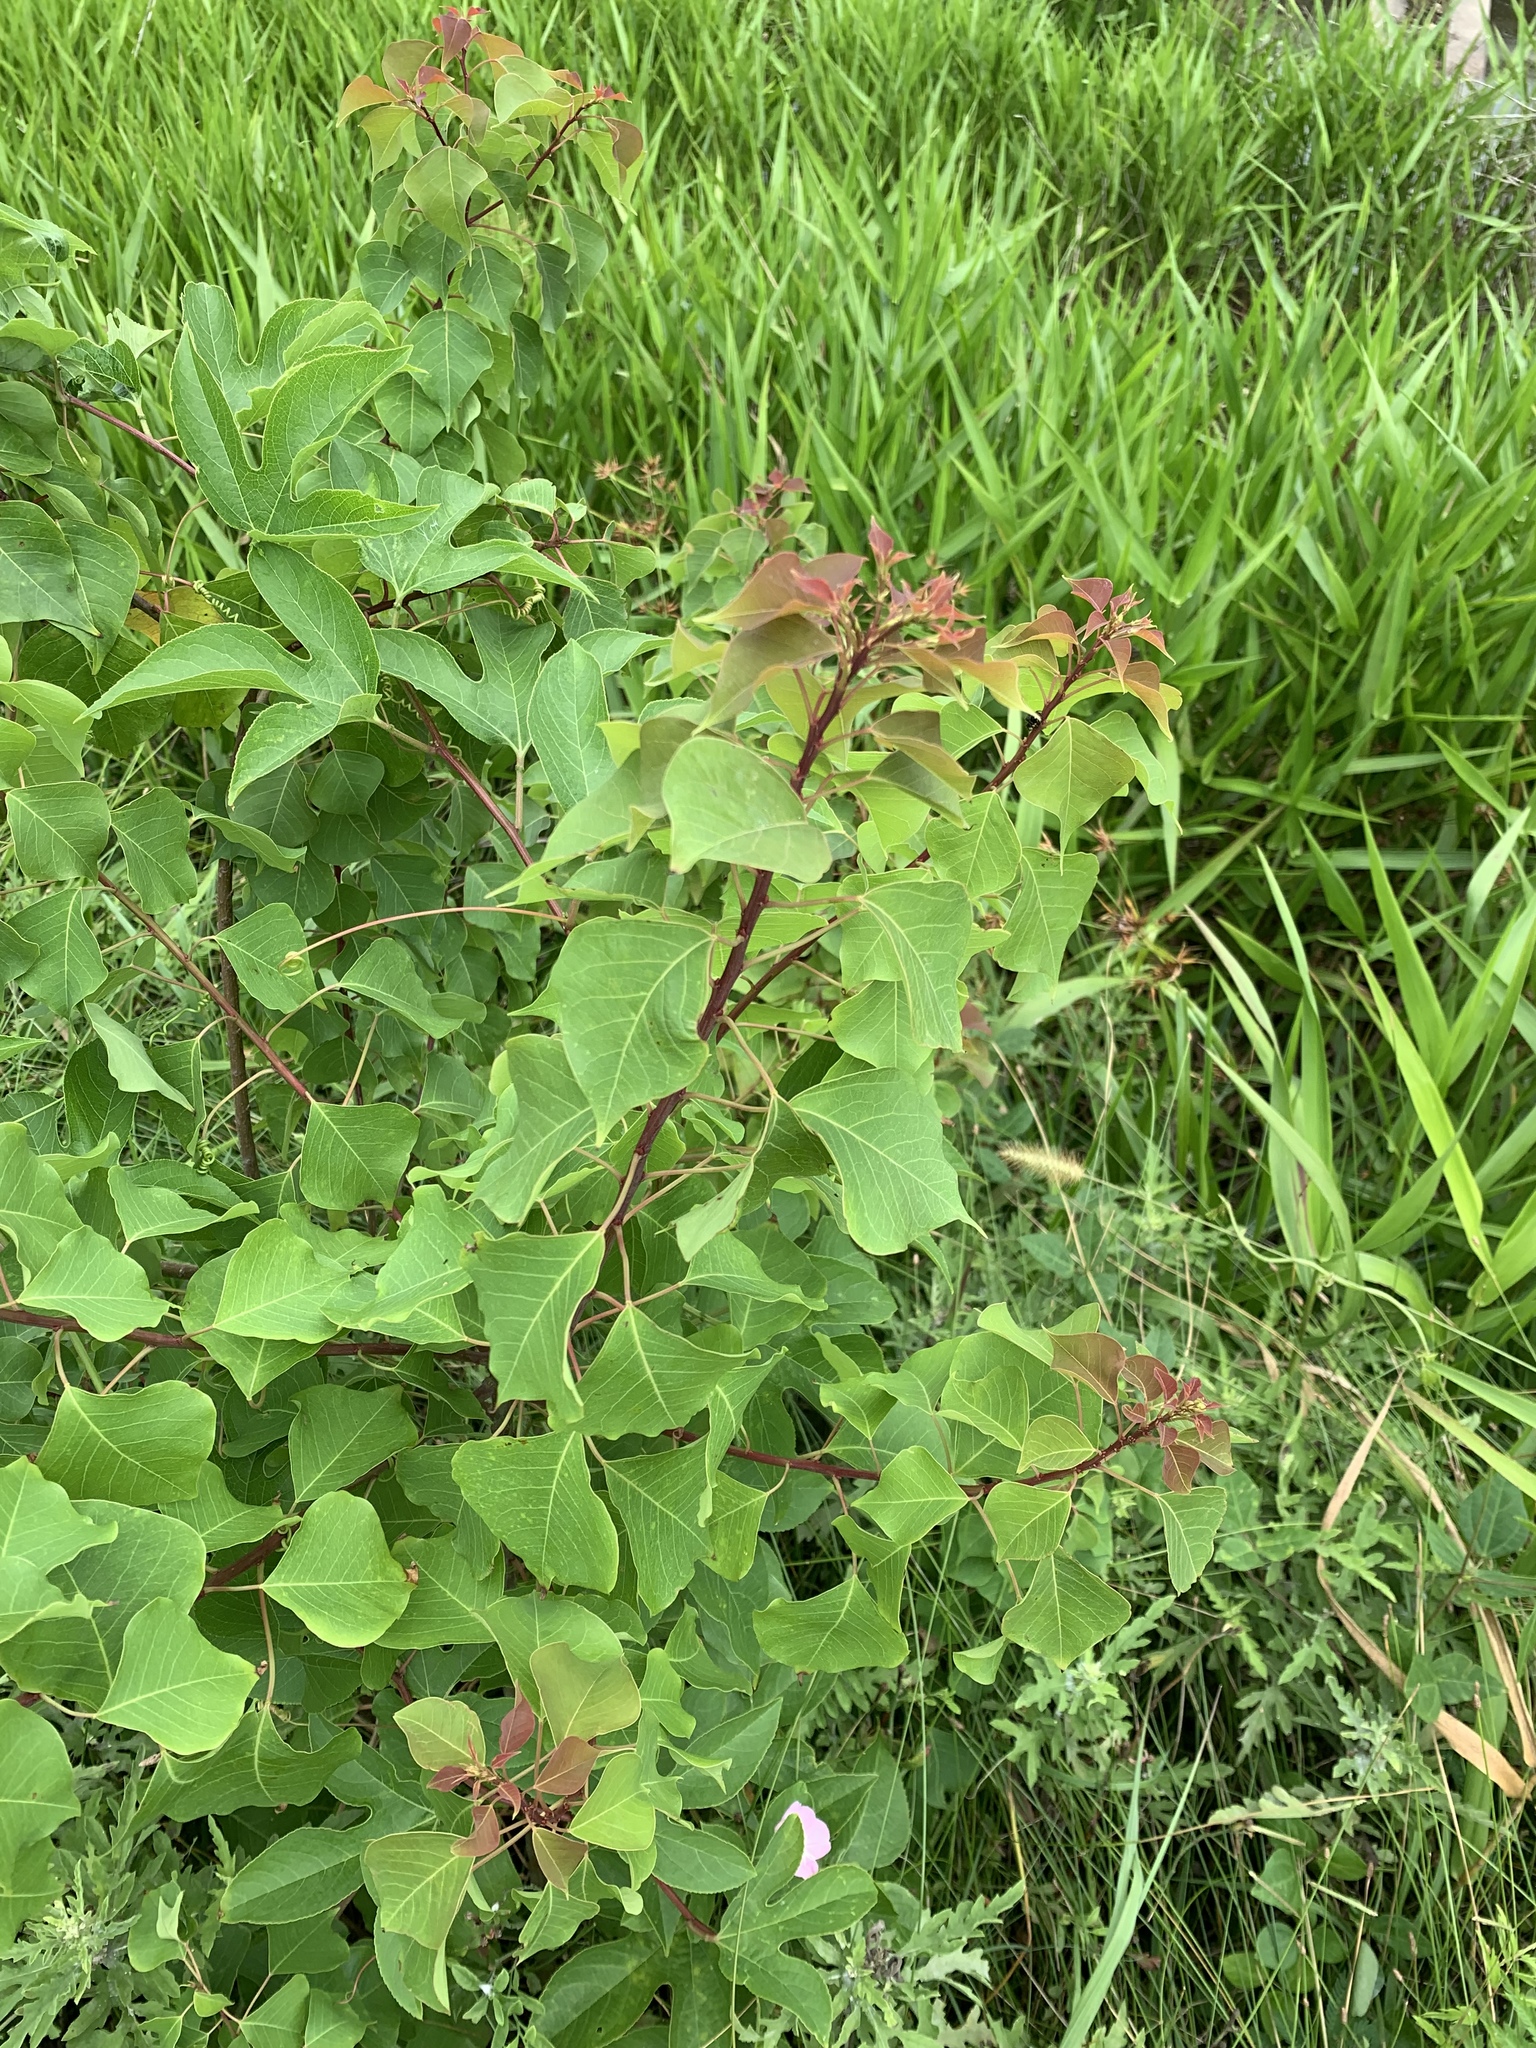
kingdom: Plantae
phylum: Tracheophyta
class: Magnoliopsida
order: Malpighiales
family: Euphorbiaceae
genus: Triadica
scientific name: Triadica sebifera
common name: Chinese tallow
